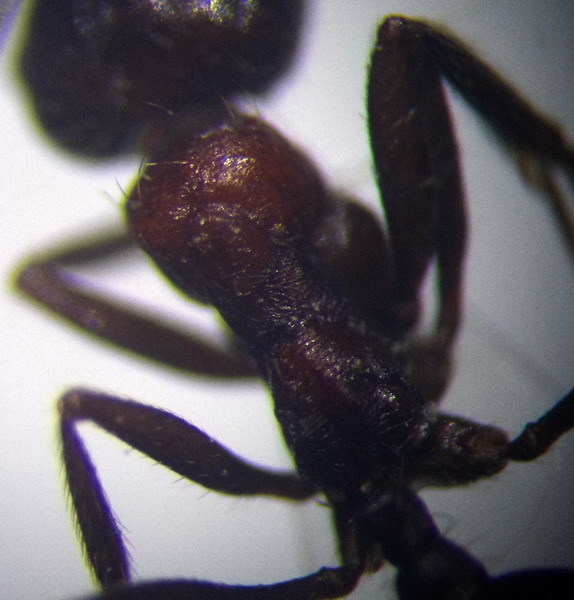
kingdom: Animalia
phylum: Arthropoda
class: Insecta
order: Hymenoptera
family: Formicidae
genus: Messor
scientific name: Messor denticulatus
